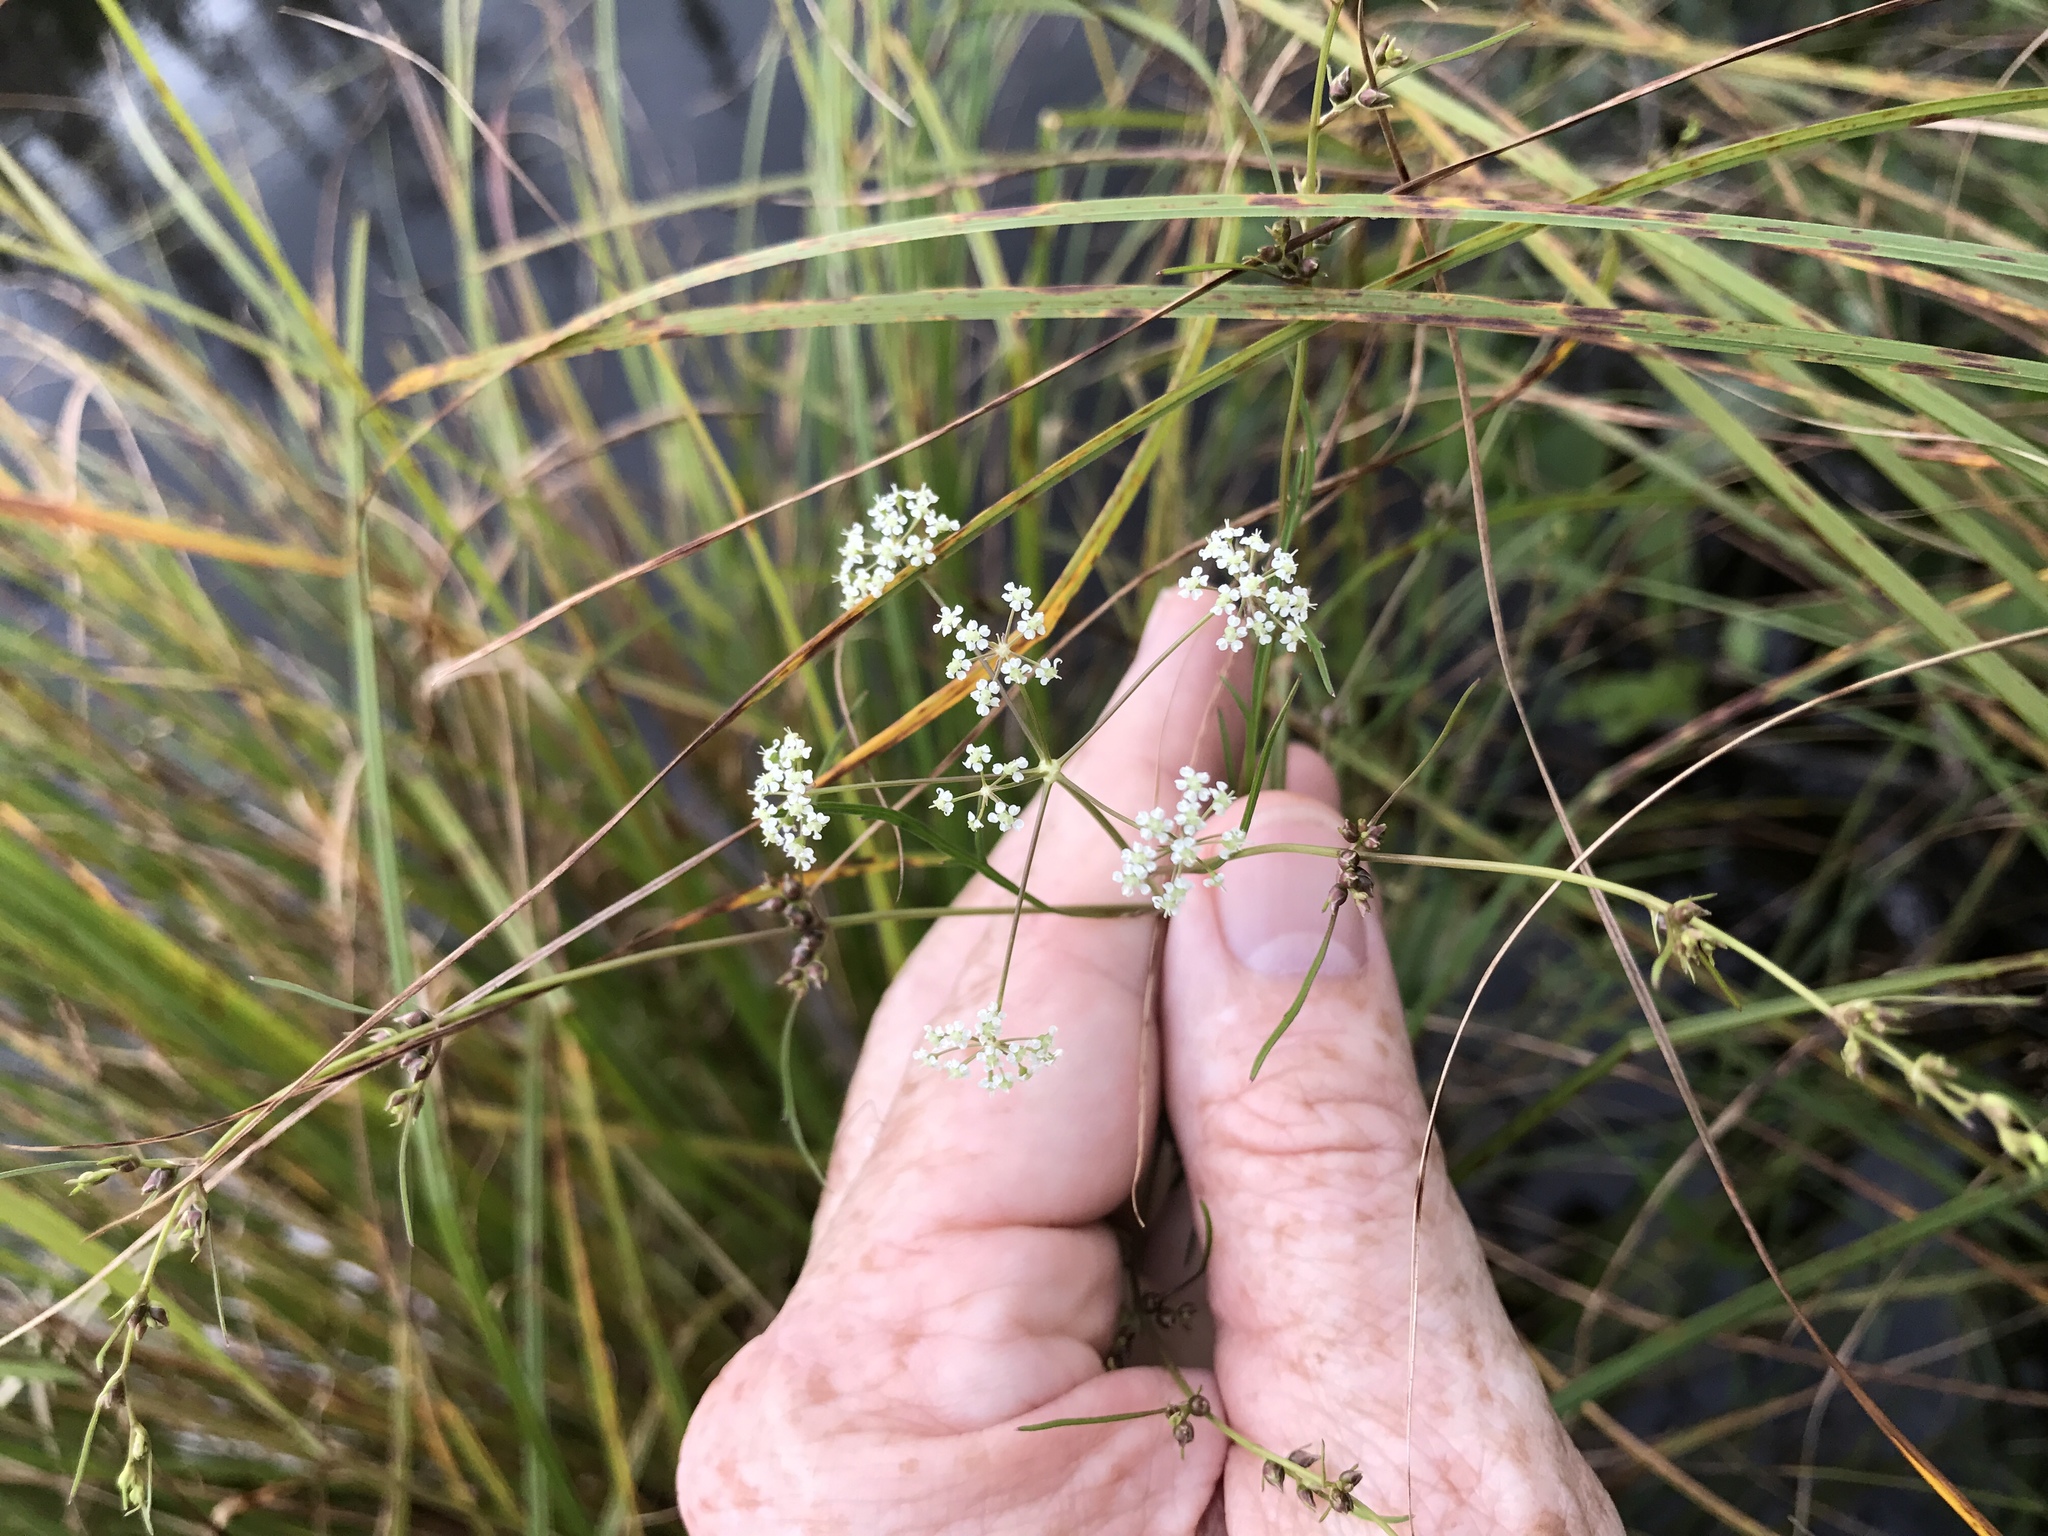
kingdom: Plantae
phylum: Tracheophyta
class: Magnoliopsida
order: Apiales
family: Apiaceae
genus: Cicuta
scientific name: Cicuta bulbifera
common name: Bulb-bearing water-hemlock
